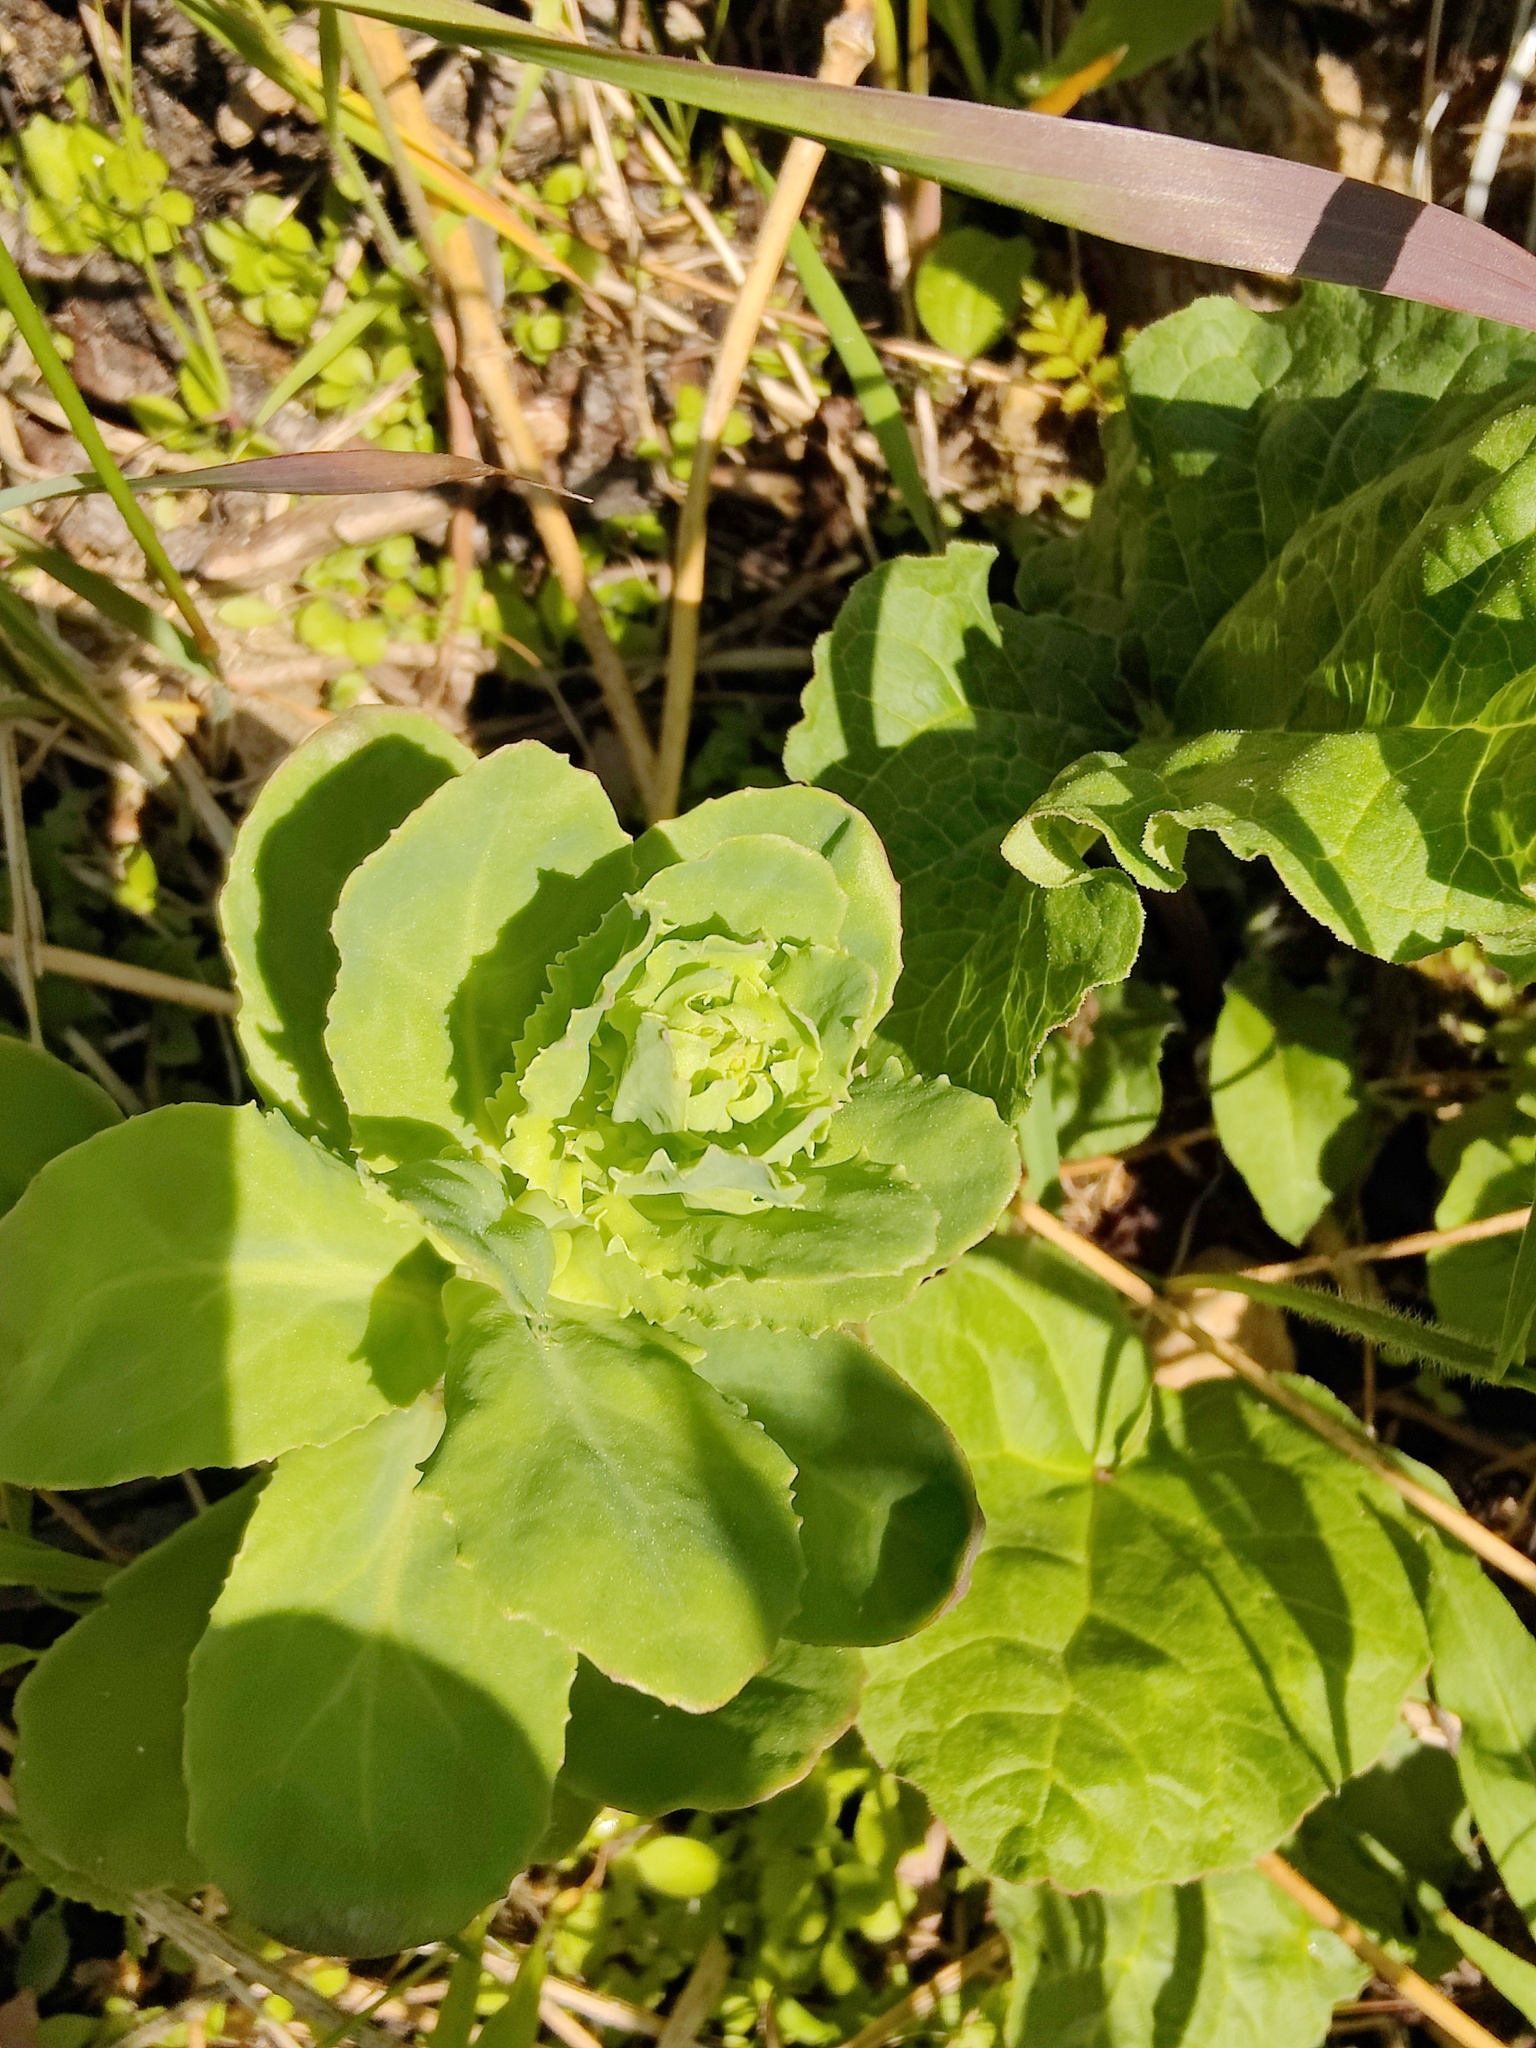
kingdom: Plantae
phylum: Tracheophyta
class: Magnoliopsida
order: Saxifragales
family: Crassulaceae
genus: Hylotelephium
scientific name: Hylotelephium telephium
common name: Live-forever
